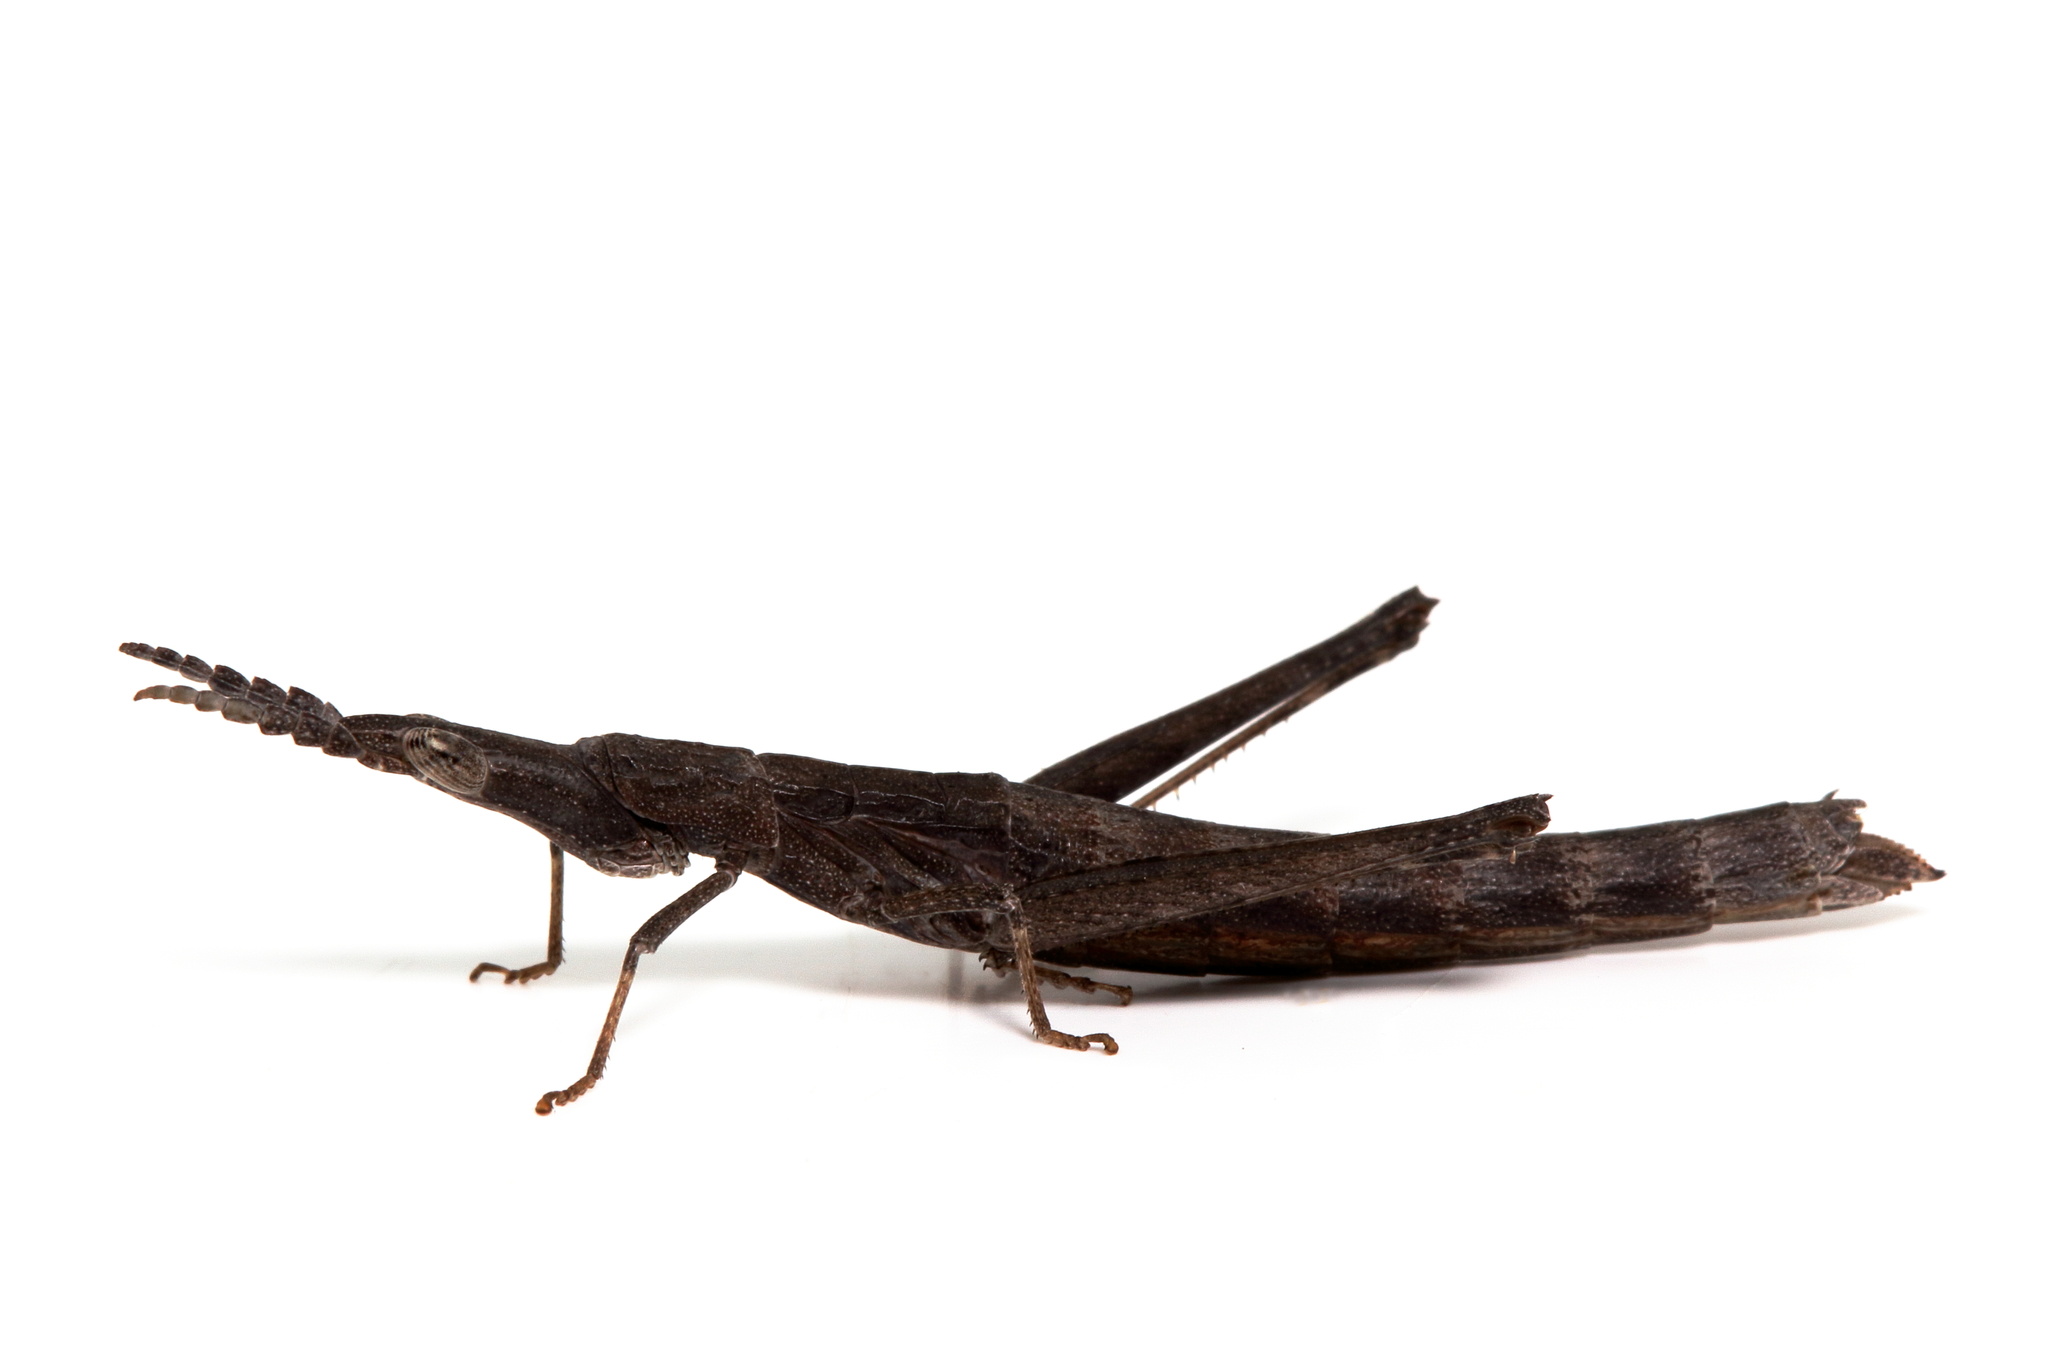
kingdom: Animalia
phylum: Arthropoda
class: Insecta
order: Orthoptera
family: Morabidae
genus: Vandiemenella
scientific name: Vandiemenella viatica
